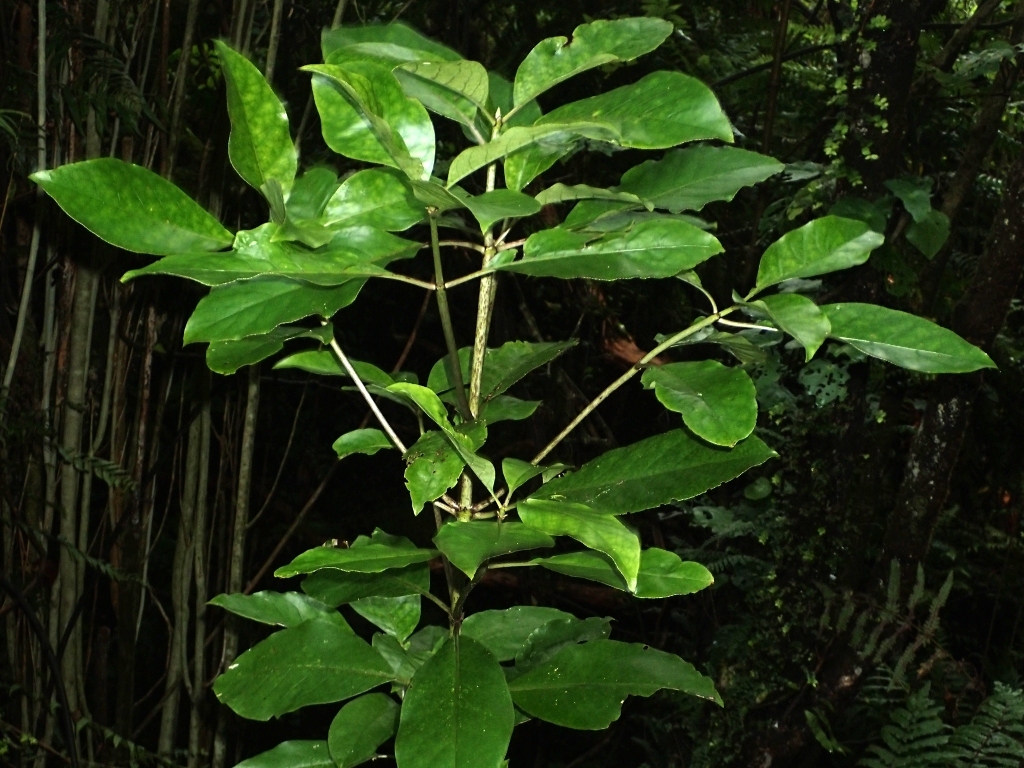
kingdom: Plantae
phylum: Tracheophyta
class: Magnoliopsida
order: Gentianales
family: Rubiaceae
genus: Coprosma
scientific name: Coprosma autumnalis
